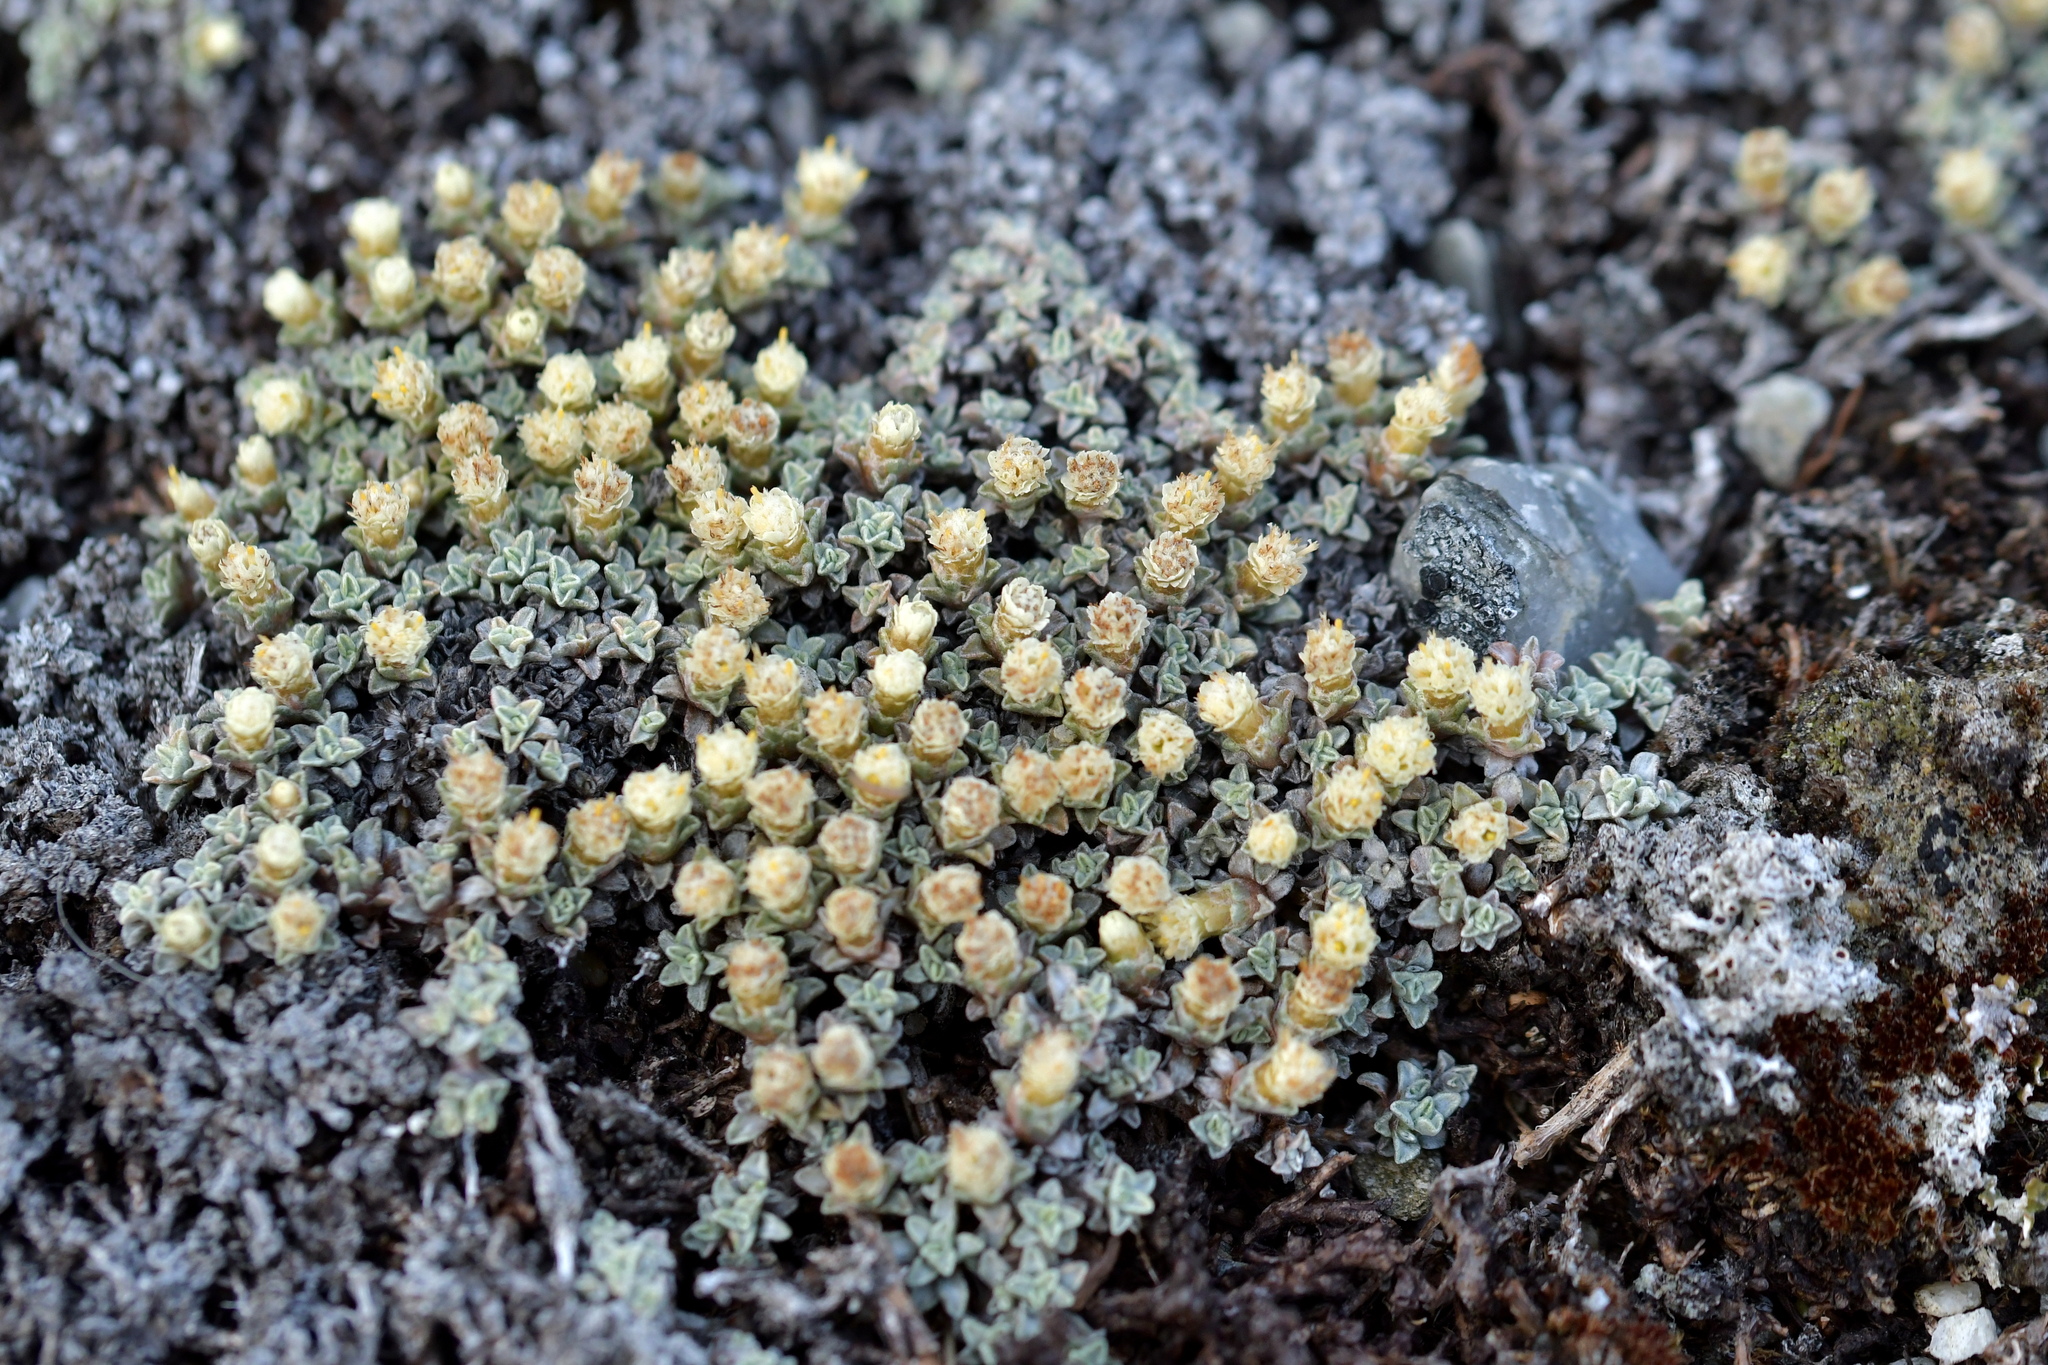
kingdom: Plantae
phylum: Tracheophyta
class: Magnoliopsida
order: Asterales
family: Asteraceae
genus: Raoulia
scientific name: Raoulia australis
